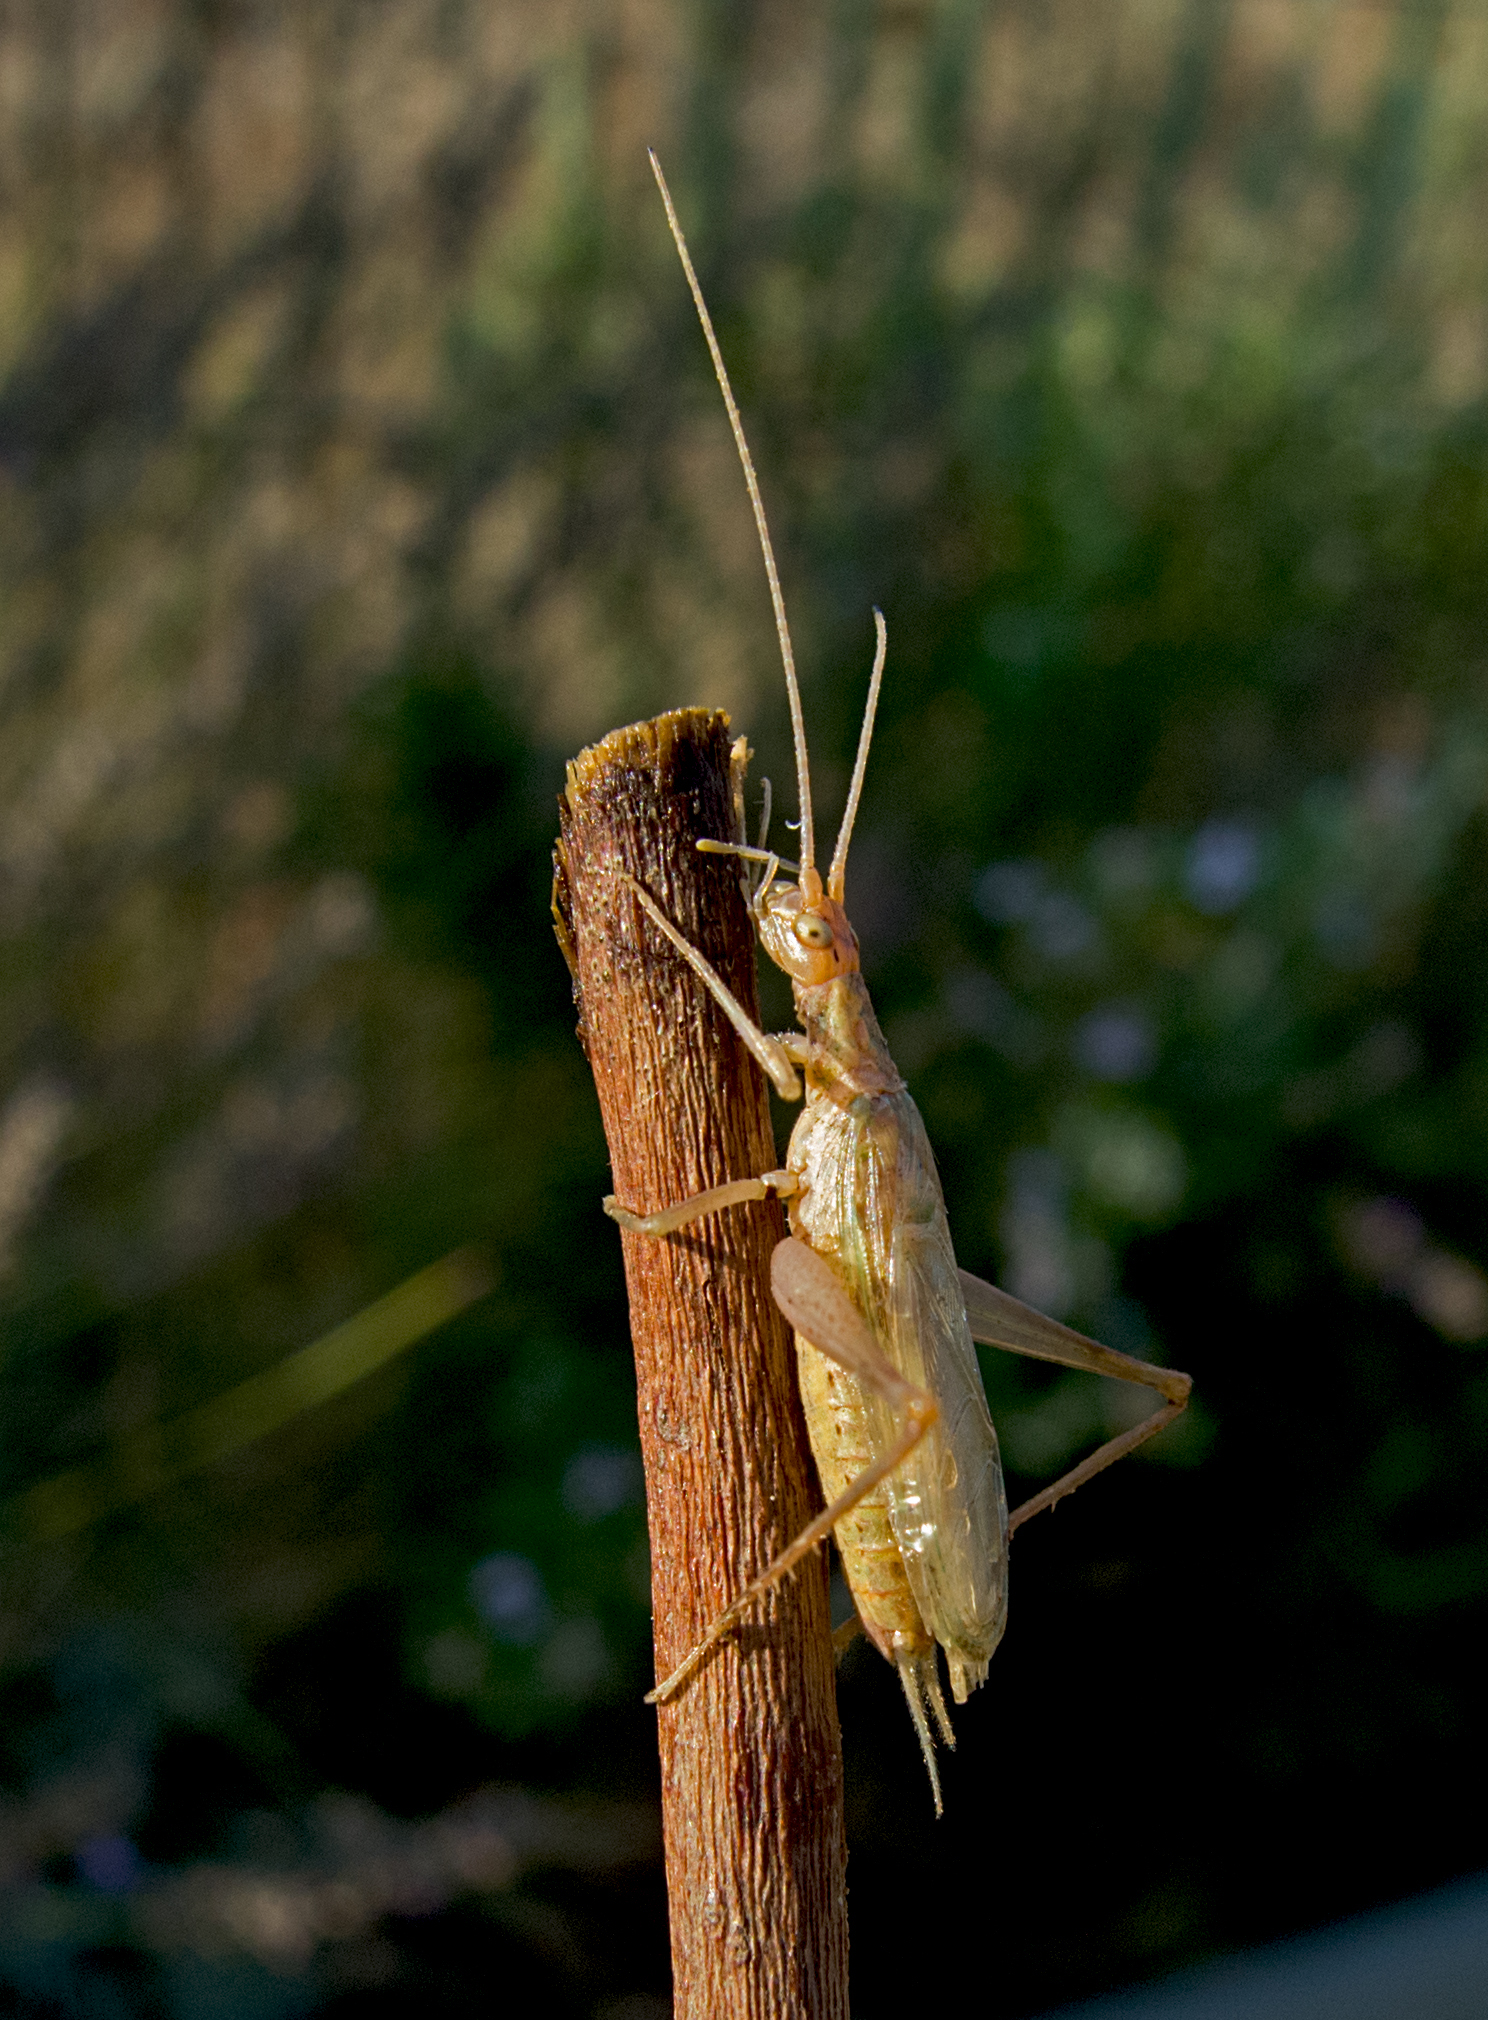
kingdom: Animalia
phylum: Arthropoda
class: Insecta
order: Orthoptera
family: Gryllidae
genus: Oecanthus
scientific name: Oecanthus pellucens
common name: Tree-cricket
